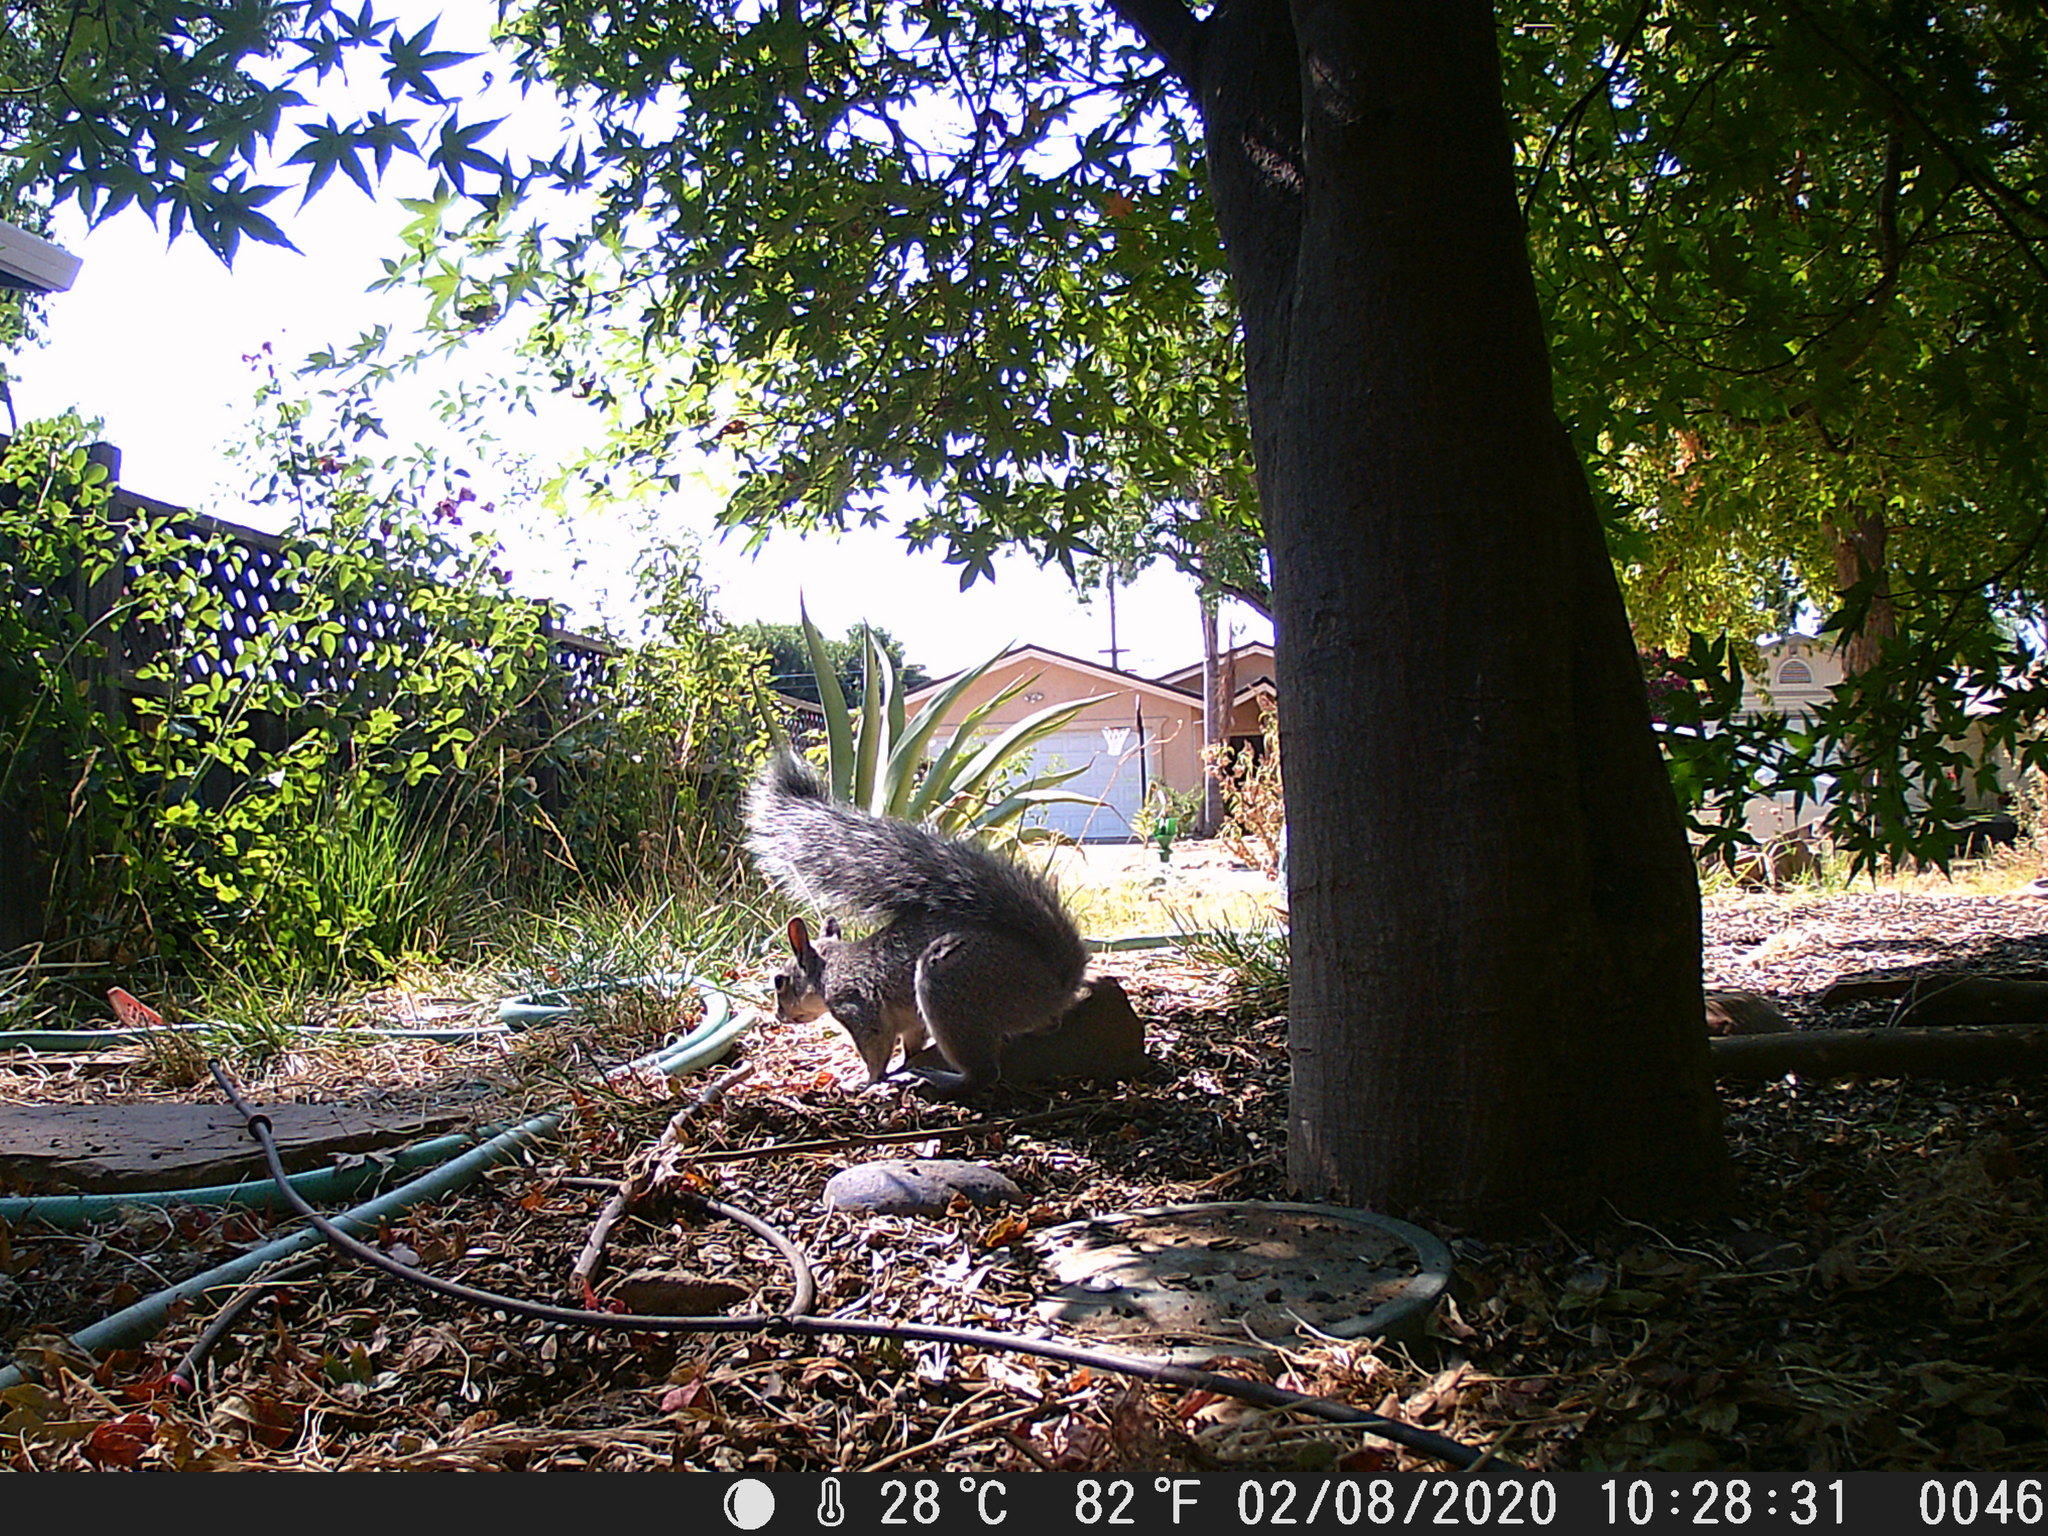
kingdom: Animalia
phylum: Chordata
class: Mammalia
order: Rodentia
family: Sciuridae
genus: Sciurus
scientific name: Sciurus griseus
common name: Western gray squirrel
